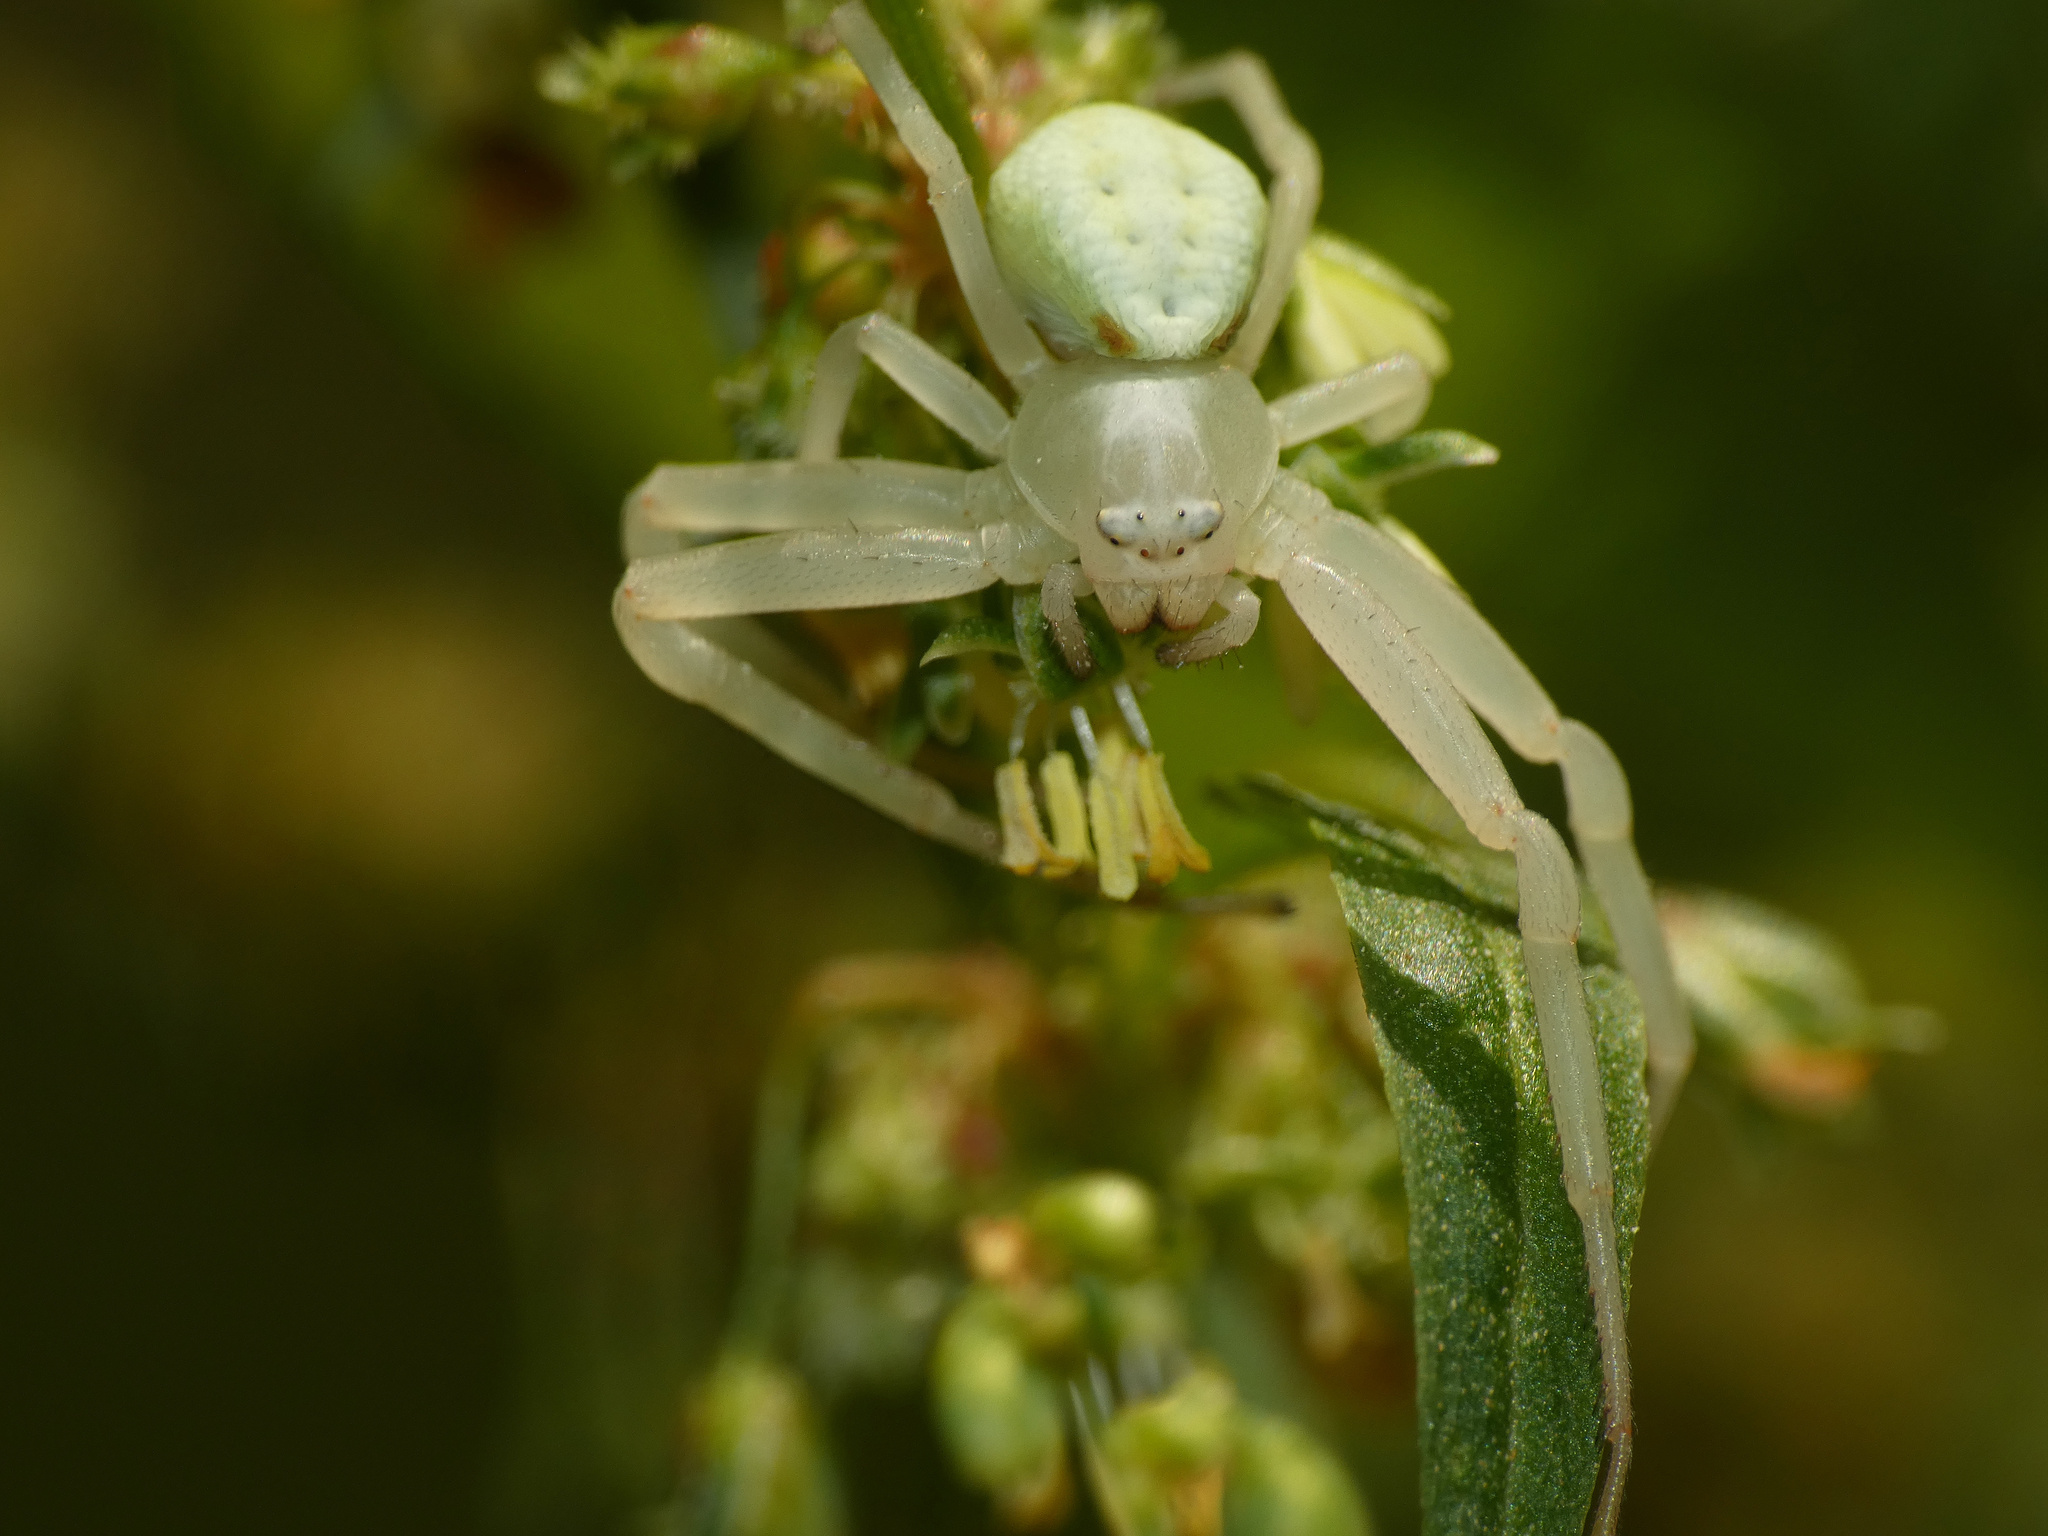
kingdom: Animalia
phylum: Arthropoda
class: Arachnida
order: Araneae
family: Thomisidae
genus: Misumena
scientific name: Misumena vatia
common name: Goldenrod crab spider
